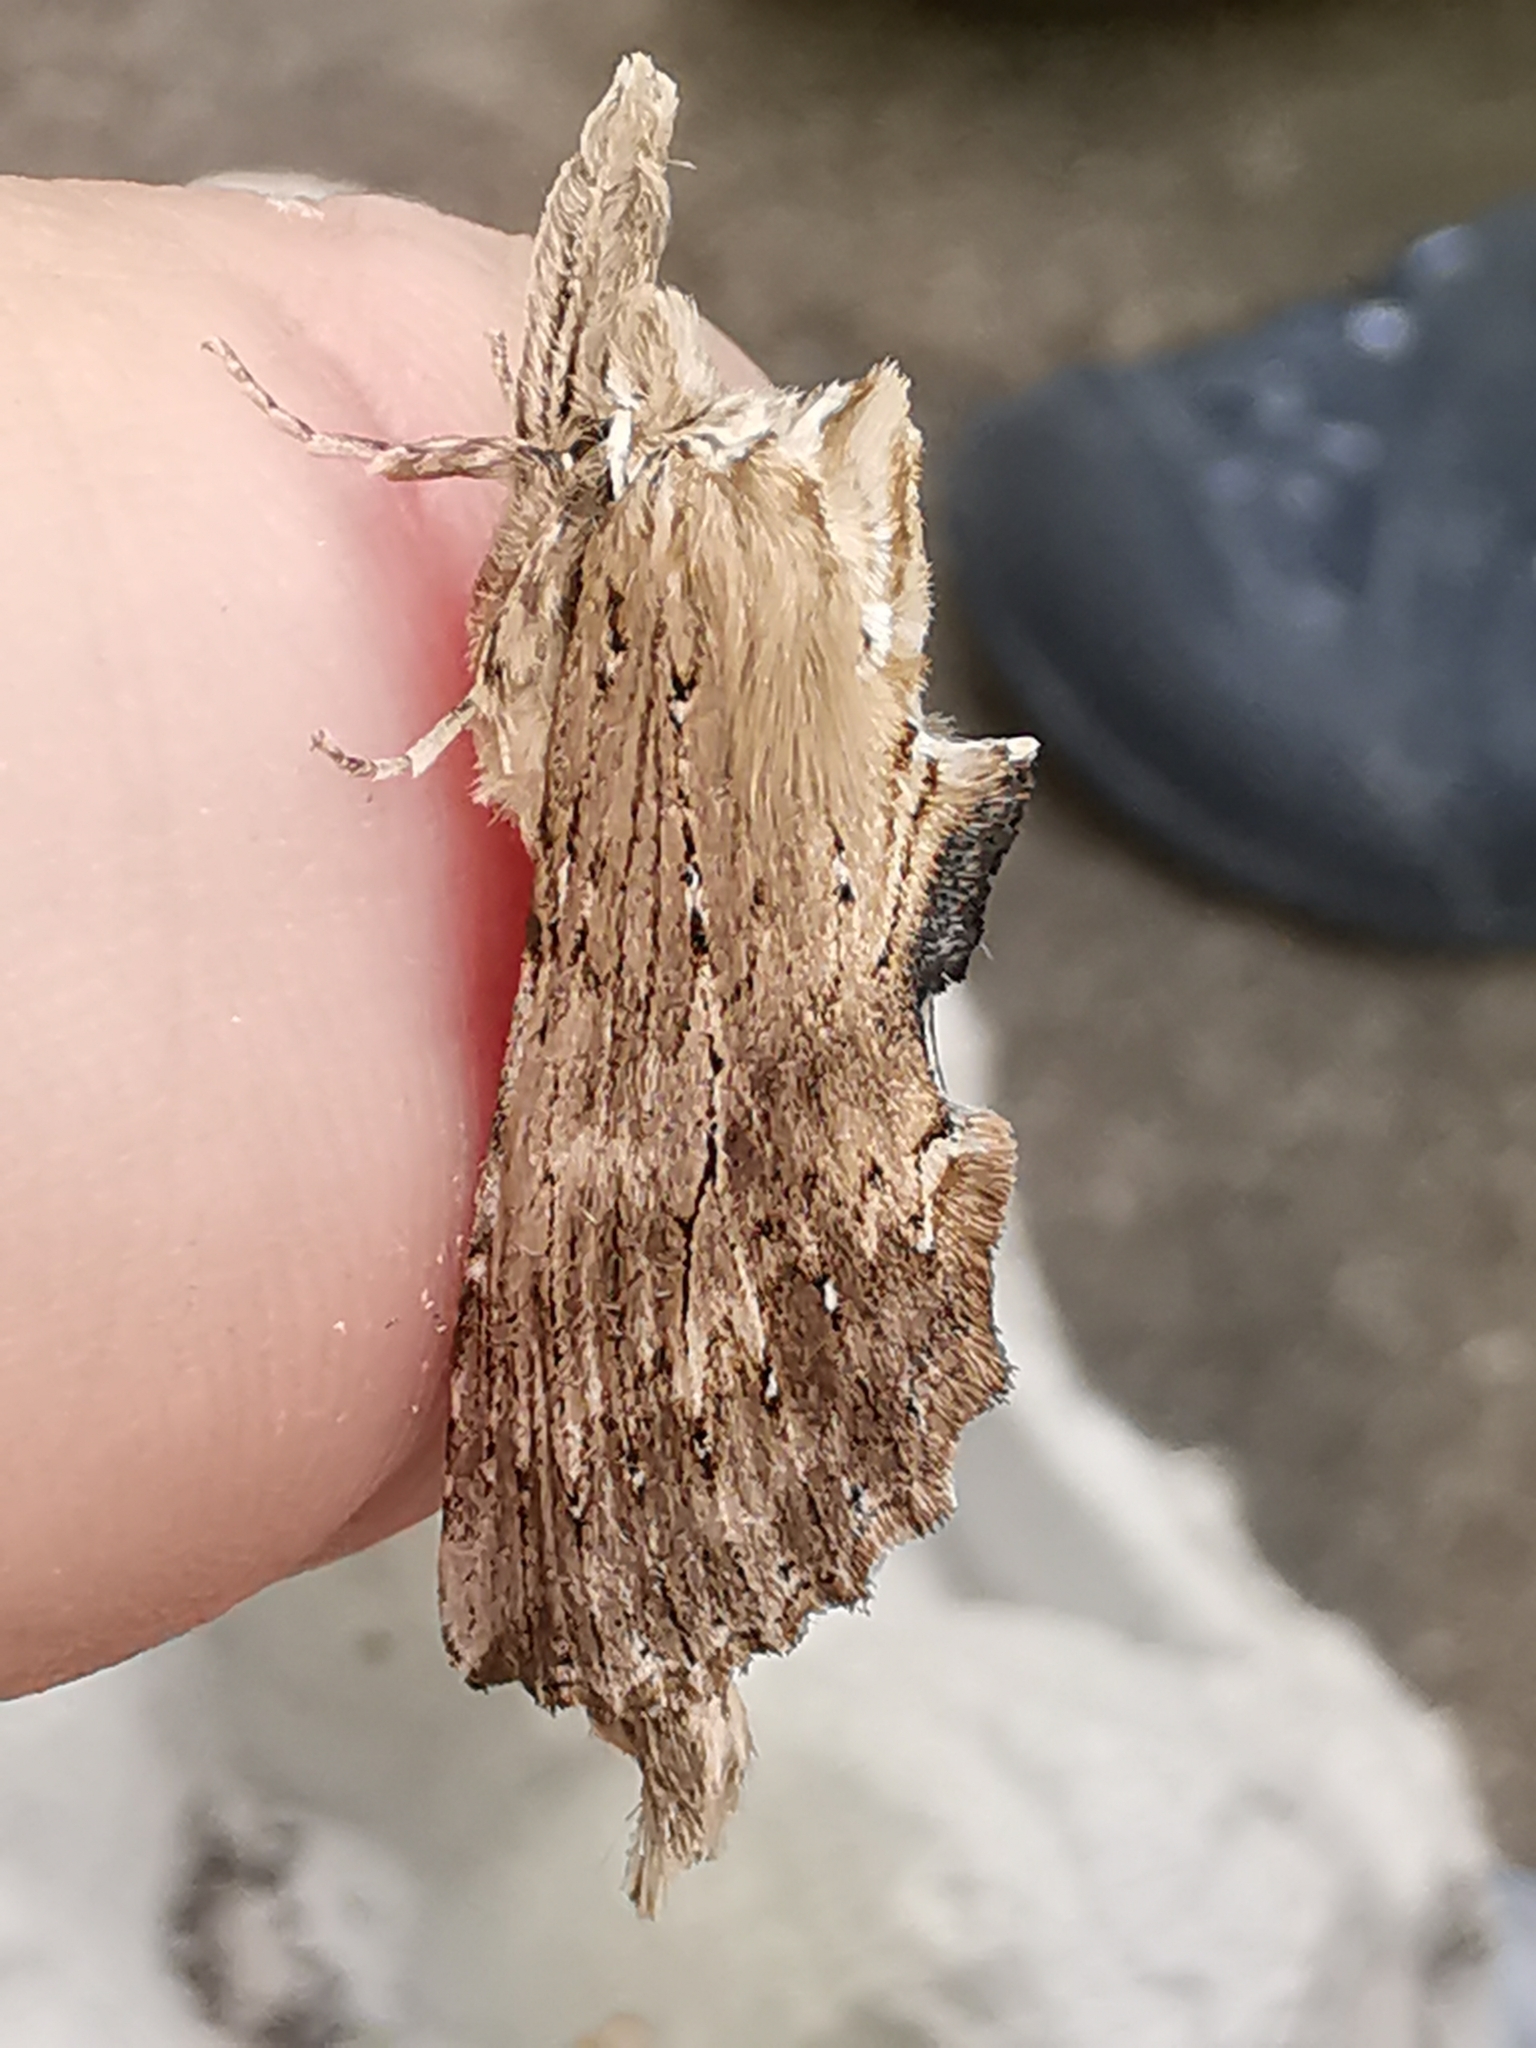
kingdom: Animalia
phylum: Arthropoda
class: Insecta
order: Lepidoptera
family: Notodontidae
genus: Pterostoma
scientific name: Pterostoma palpina
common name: Pale prominent
